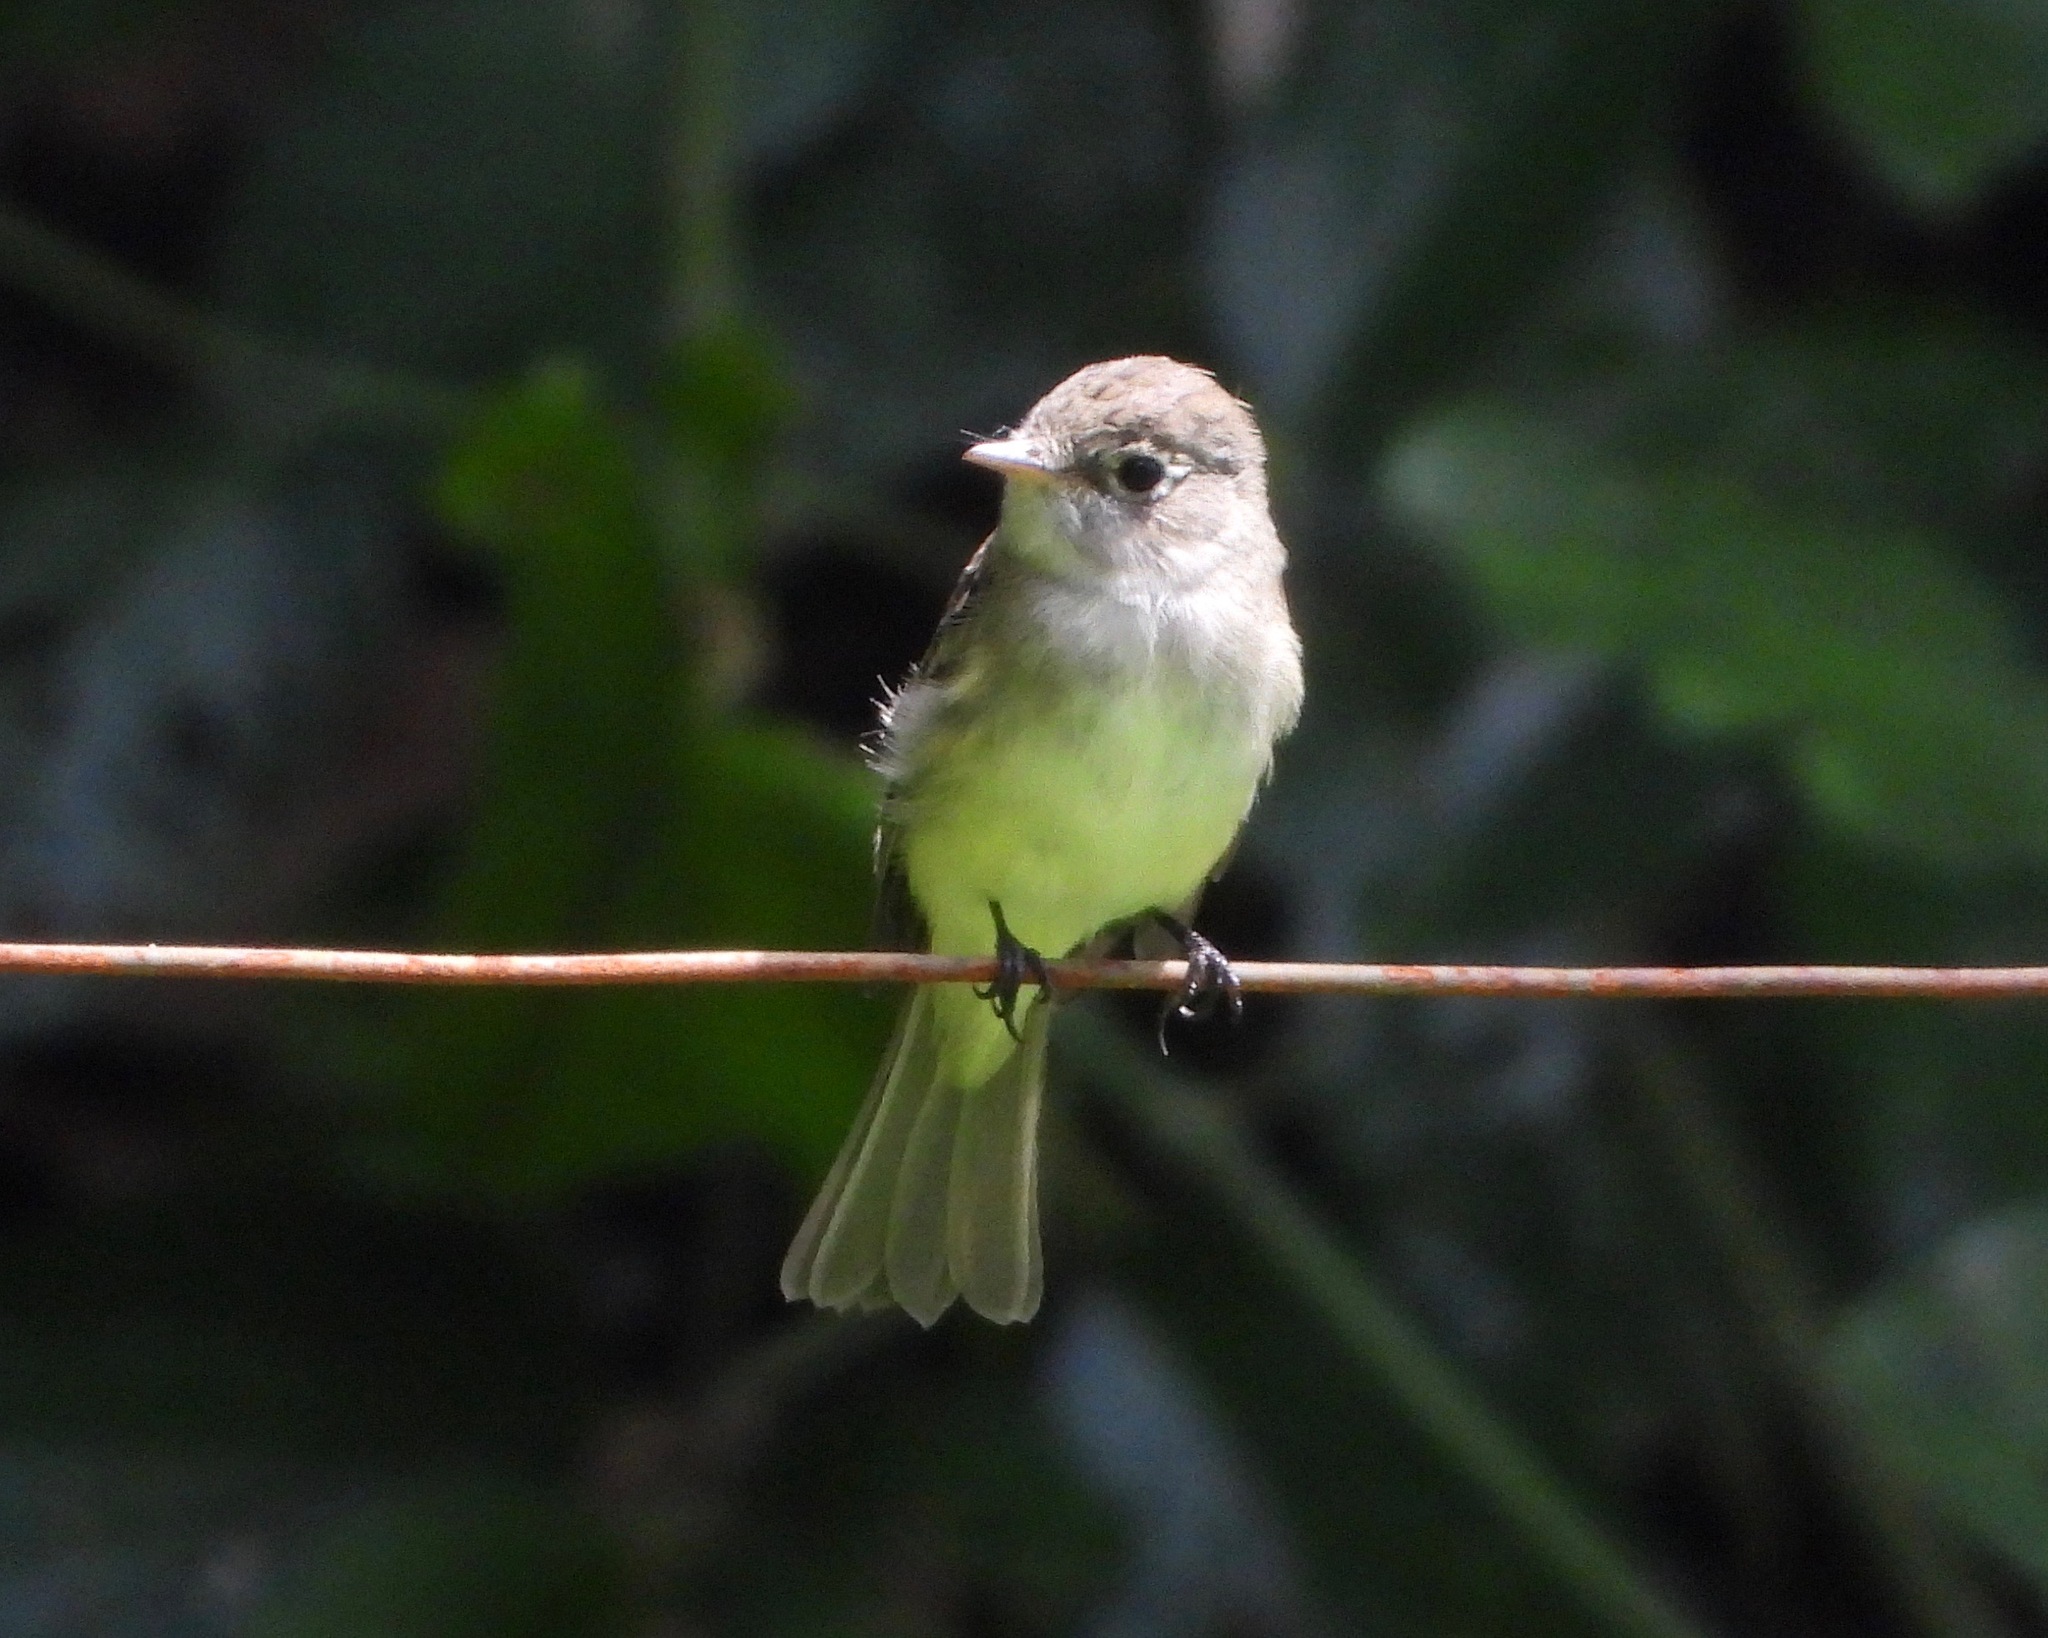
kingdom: Animalia
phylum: Chordata
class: Aves
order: Passeriformes
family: Tyrannidae
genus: Empidonax
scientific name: Empidonax minimus
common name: Least flycatcher
